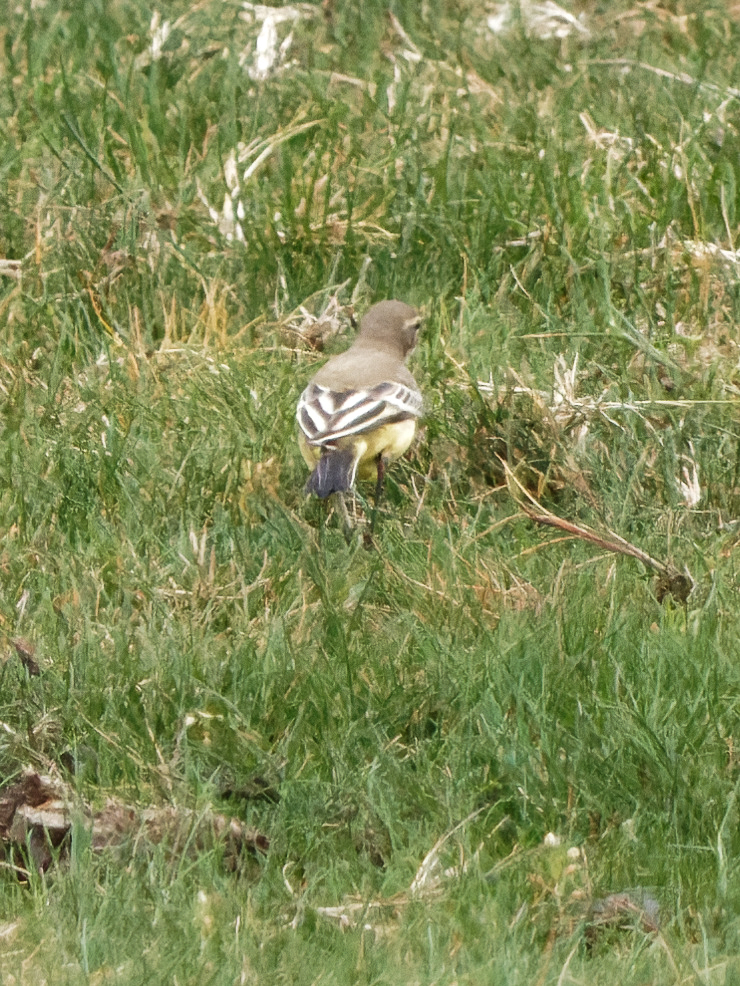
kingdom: Animalia
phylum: Chordata
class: Aves
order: Passeriformes
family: Motacillidae
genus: Motacilla
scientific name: Motacilla flava
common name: Western yellow wagtail
